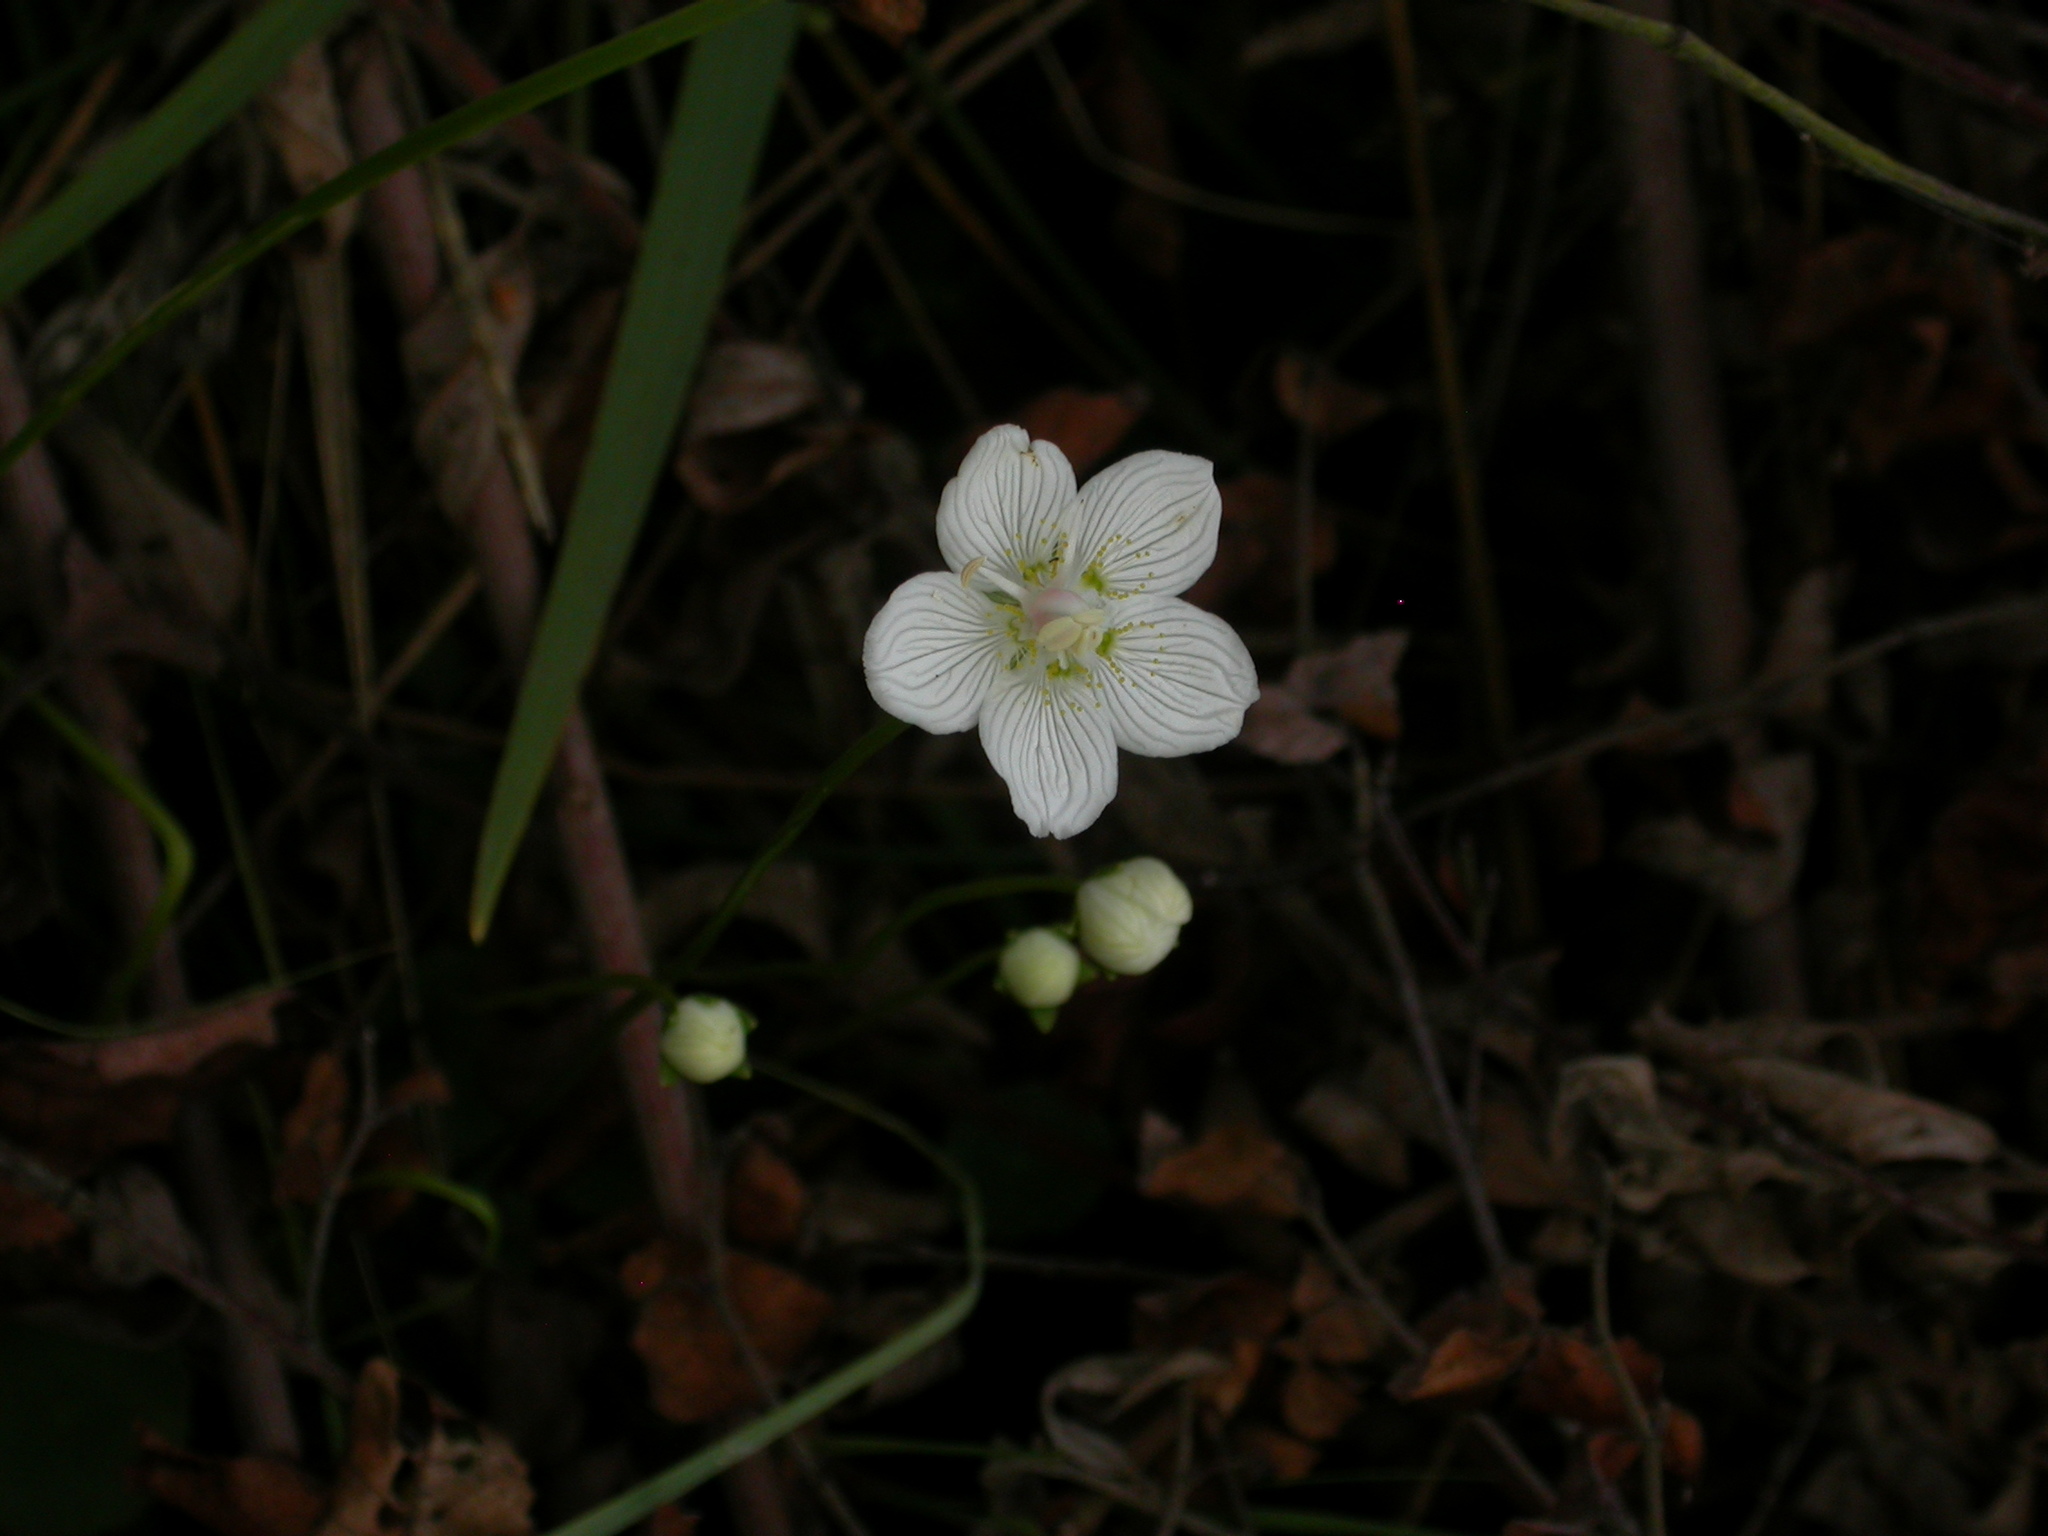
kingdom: Plantae
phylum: Tracheophyta
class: Magnoliopsida
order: Celastrales
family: Parnassiaceae
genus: Parnassia
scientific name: Parnassia palustris
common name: Grass-of-parnassus
